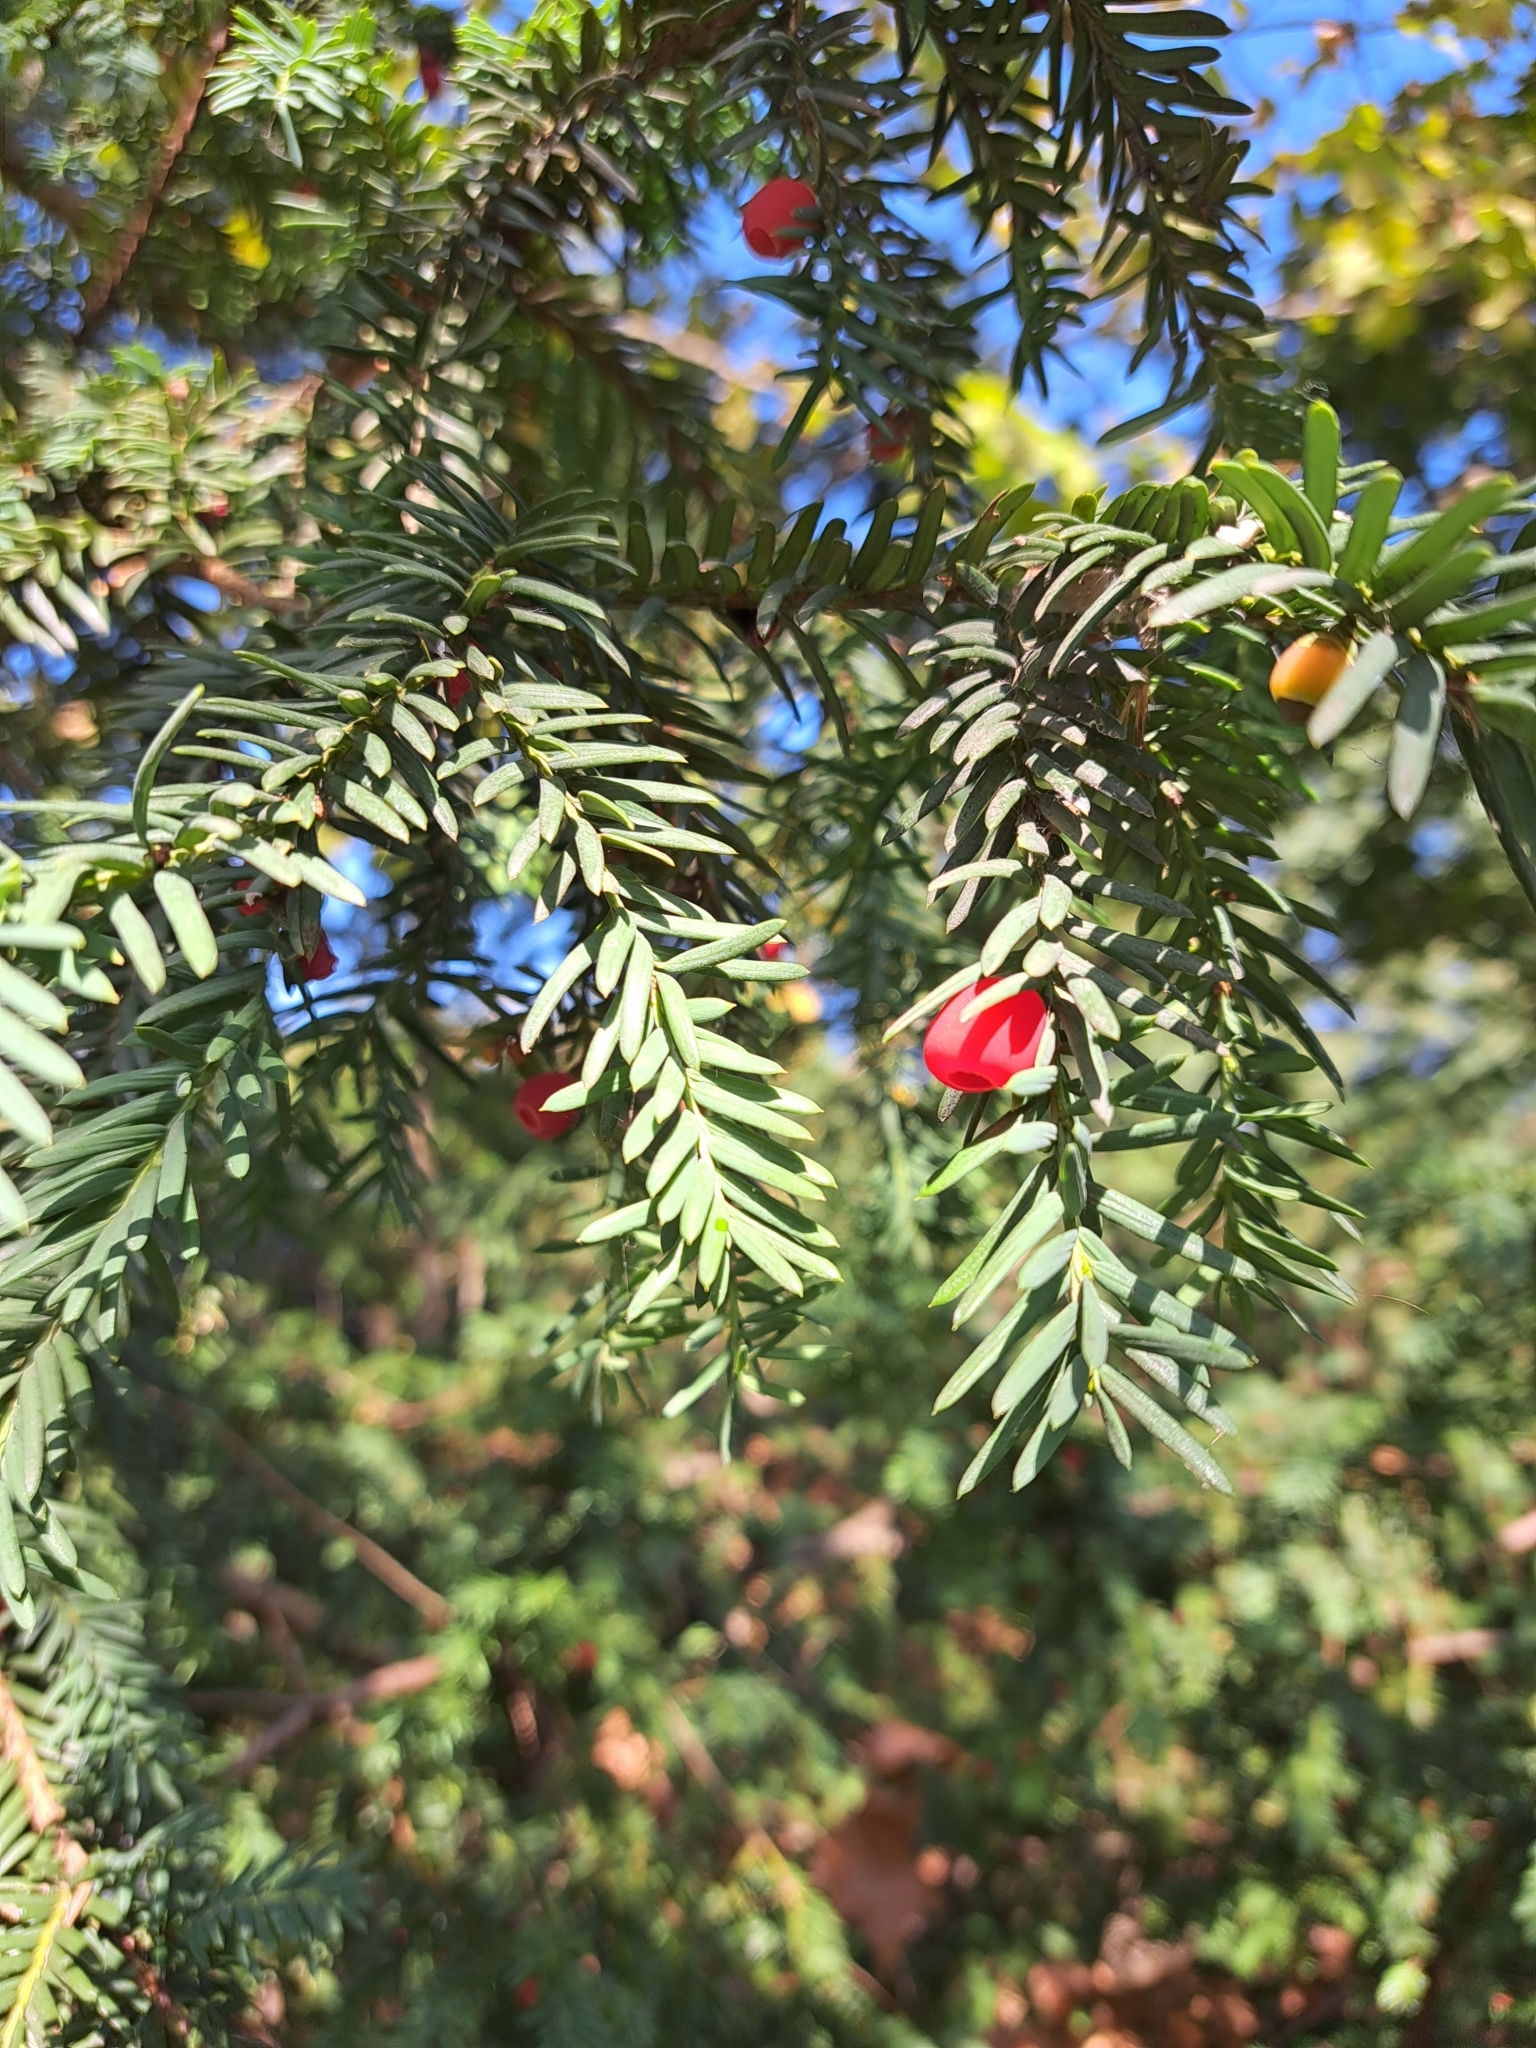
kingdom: Plantae
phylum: Tracheophyta
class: Pinopsida
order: Pinales
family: Taxaceae
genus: Taxus
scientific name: Taxus baccata
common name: Yew
